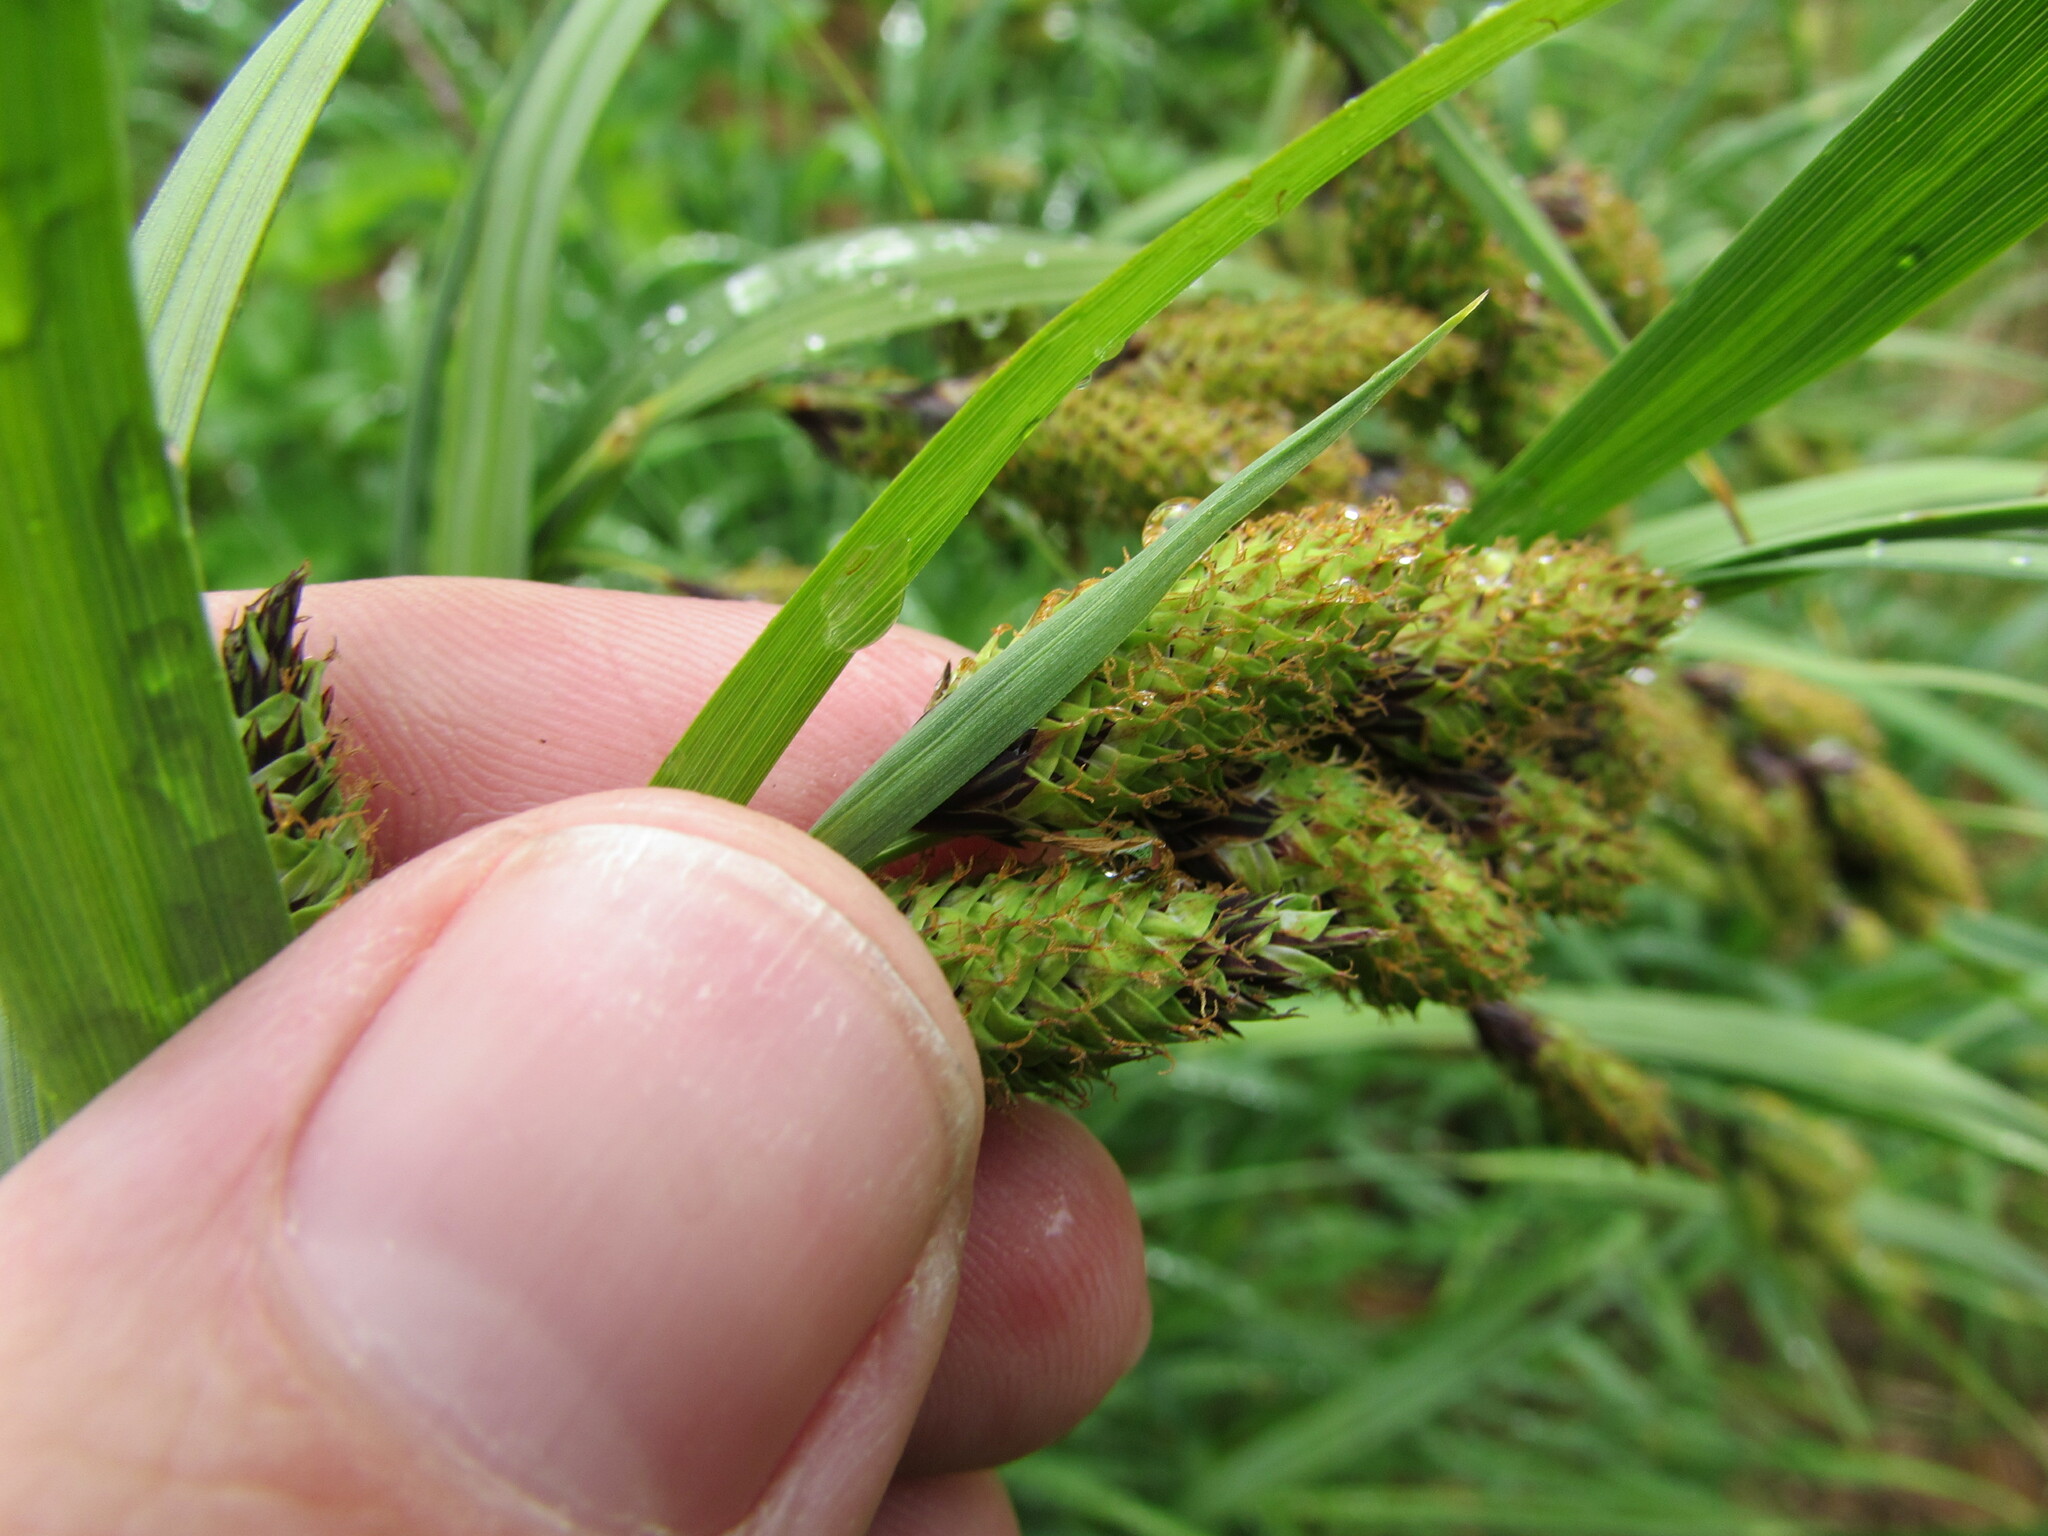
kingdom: Plantae
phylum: Tracheophyta
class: Liliopsida
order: Poales
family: Cyperaceae
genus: Carex
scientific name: Carex mertensii
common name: Mertens' sedge
